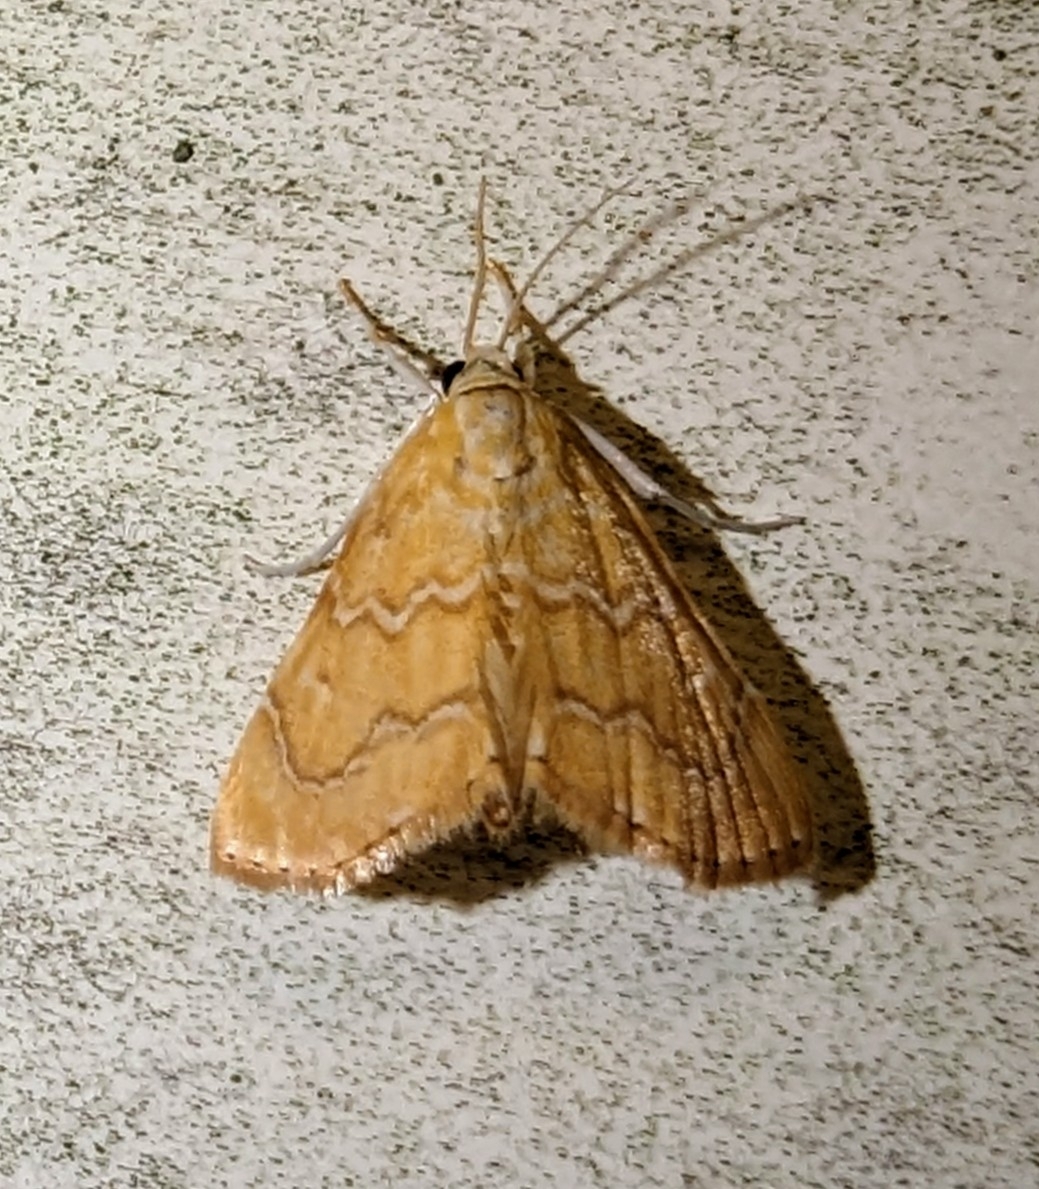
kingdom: Animalia
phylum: Arthropoda
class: Insecta
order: Lepidoptera
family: Crambidae
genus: Glaphyria
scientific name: Glaphyria sesquistrialis
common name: White-roped glaphyria
